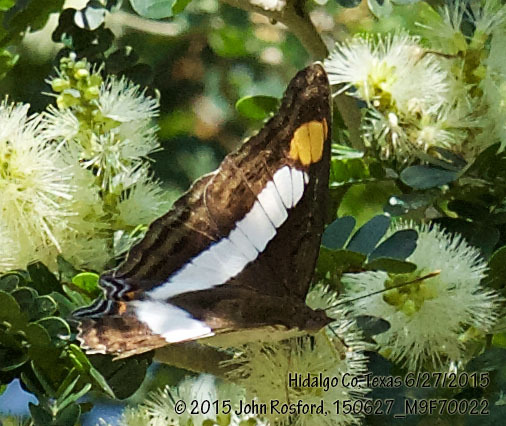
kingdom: Animalia
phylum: Arthropoda
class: Insecta
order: Lepidoptera
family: Nymphalidae
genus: Doxocopa
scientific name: Doxocopa laure
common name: Silver emperor
